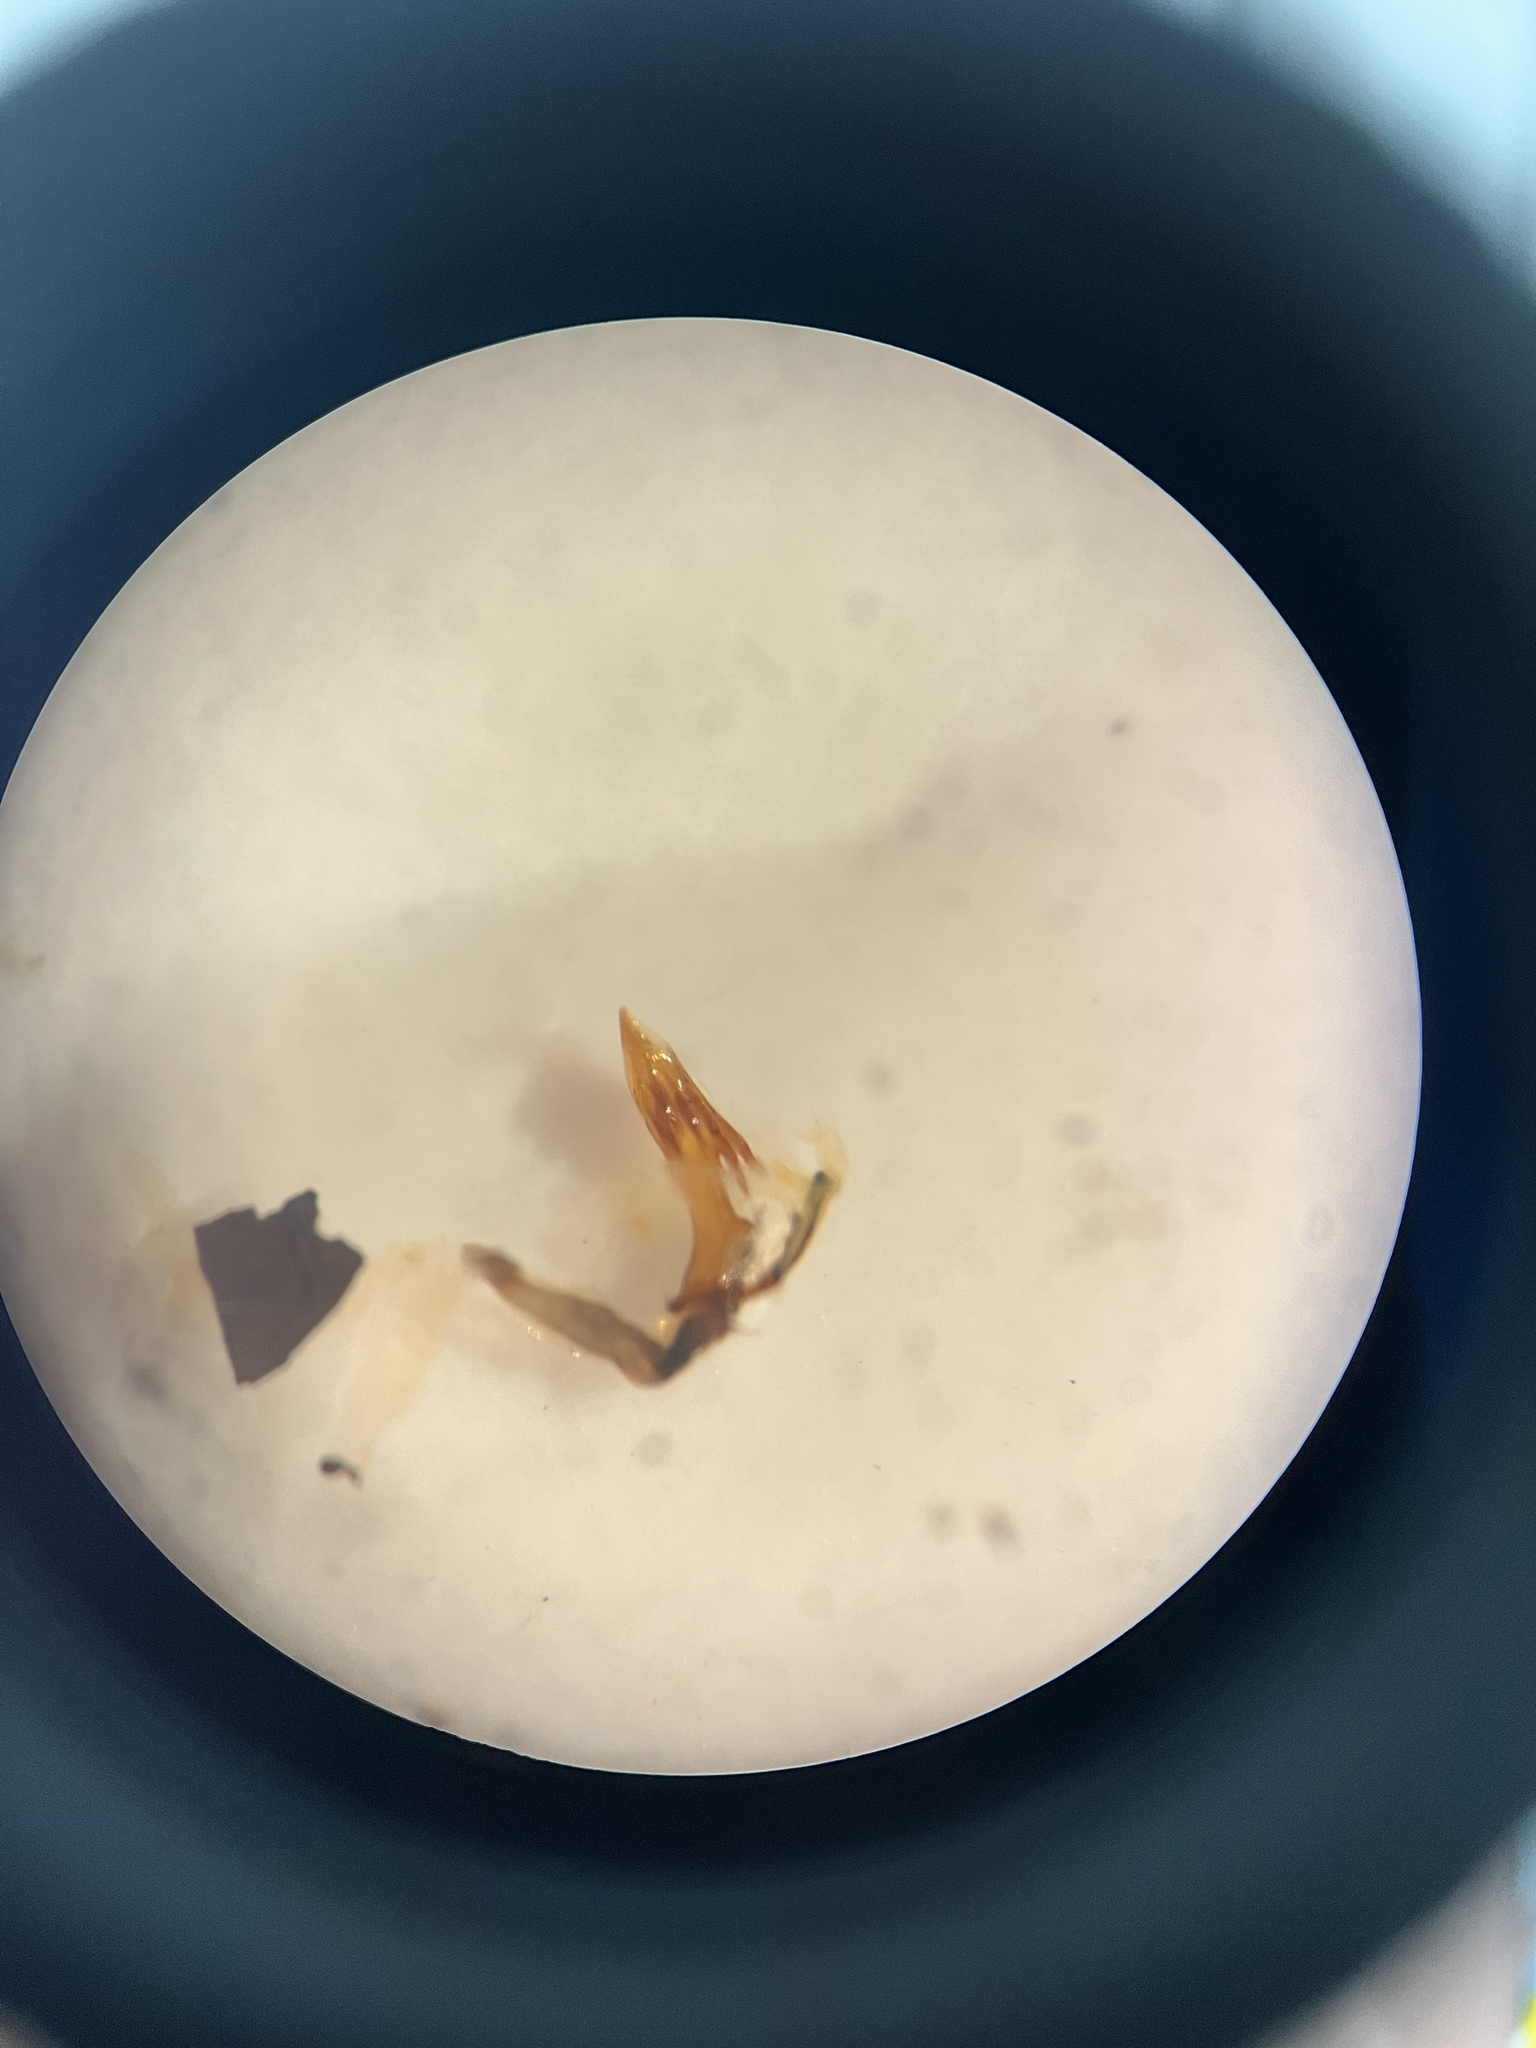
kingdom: Animalia
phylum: Arthropoda
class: Insecta
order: Hemiptera
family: Delphacidae
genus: Hyledelphax
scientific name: Hyledelphax elegantulus
